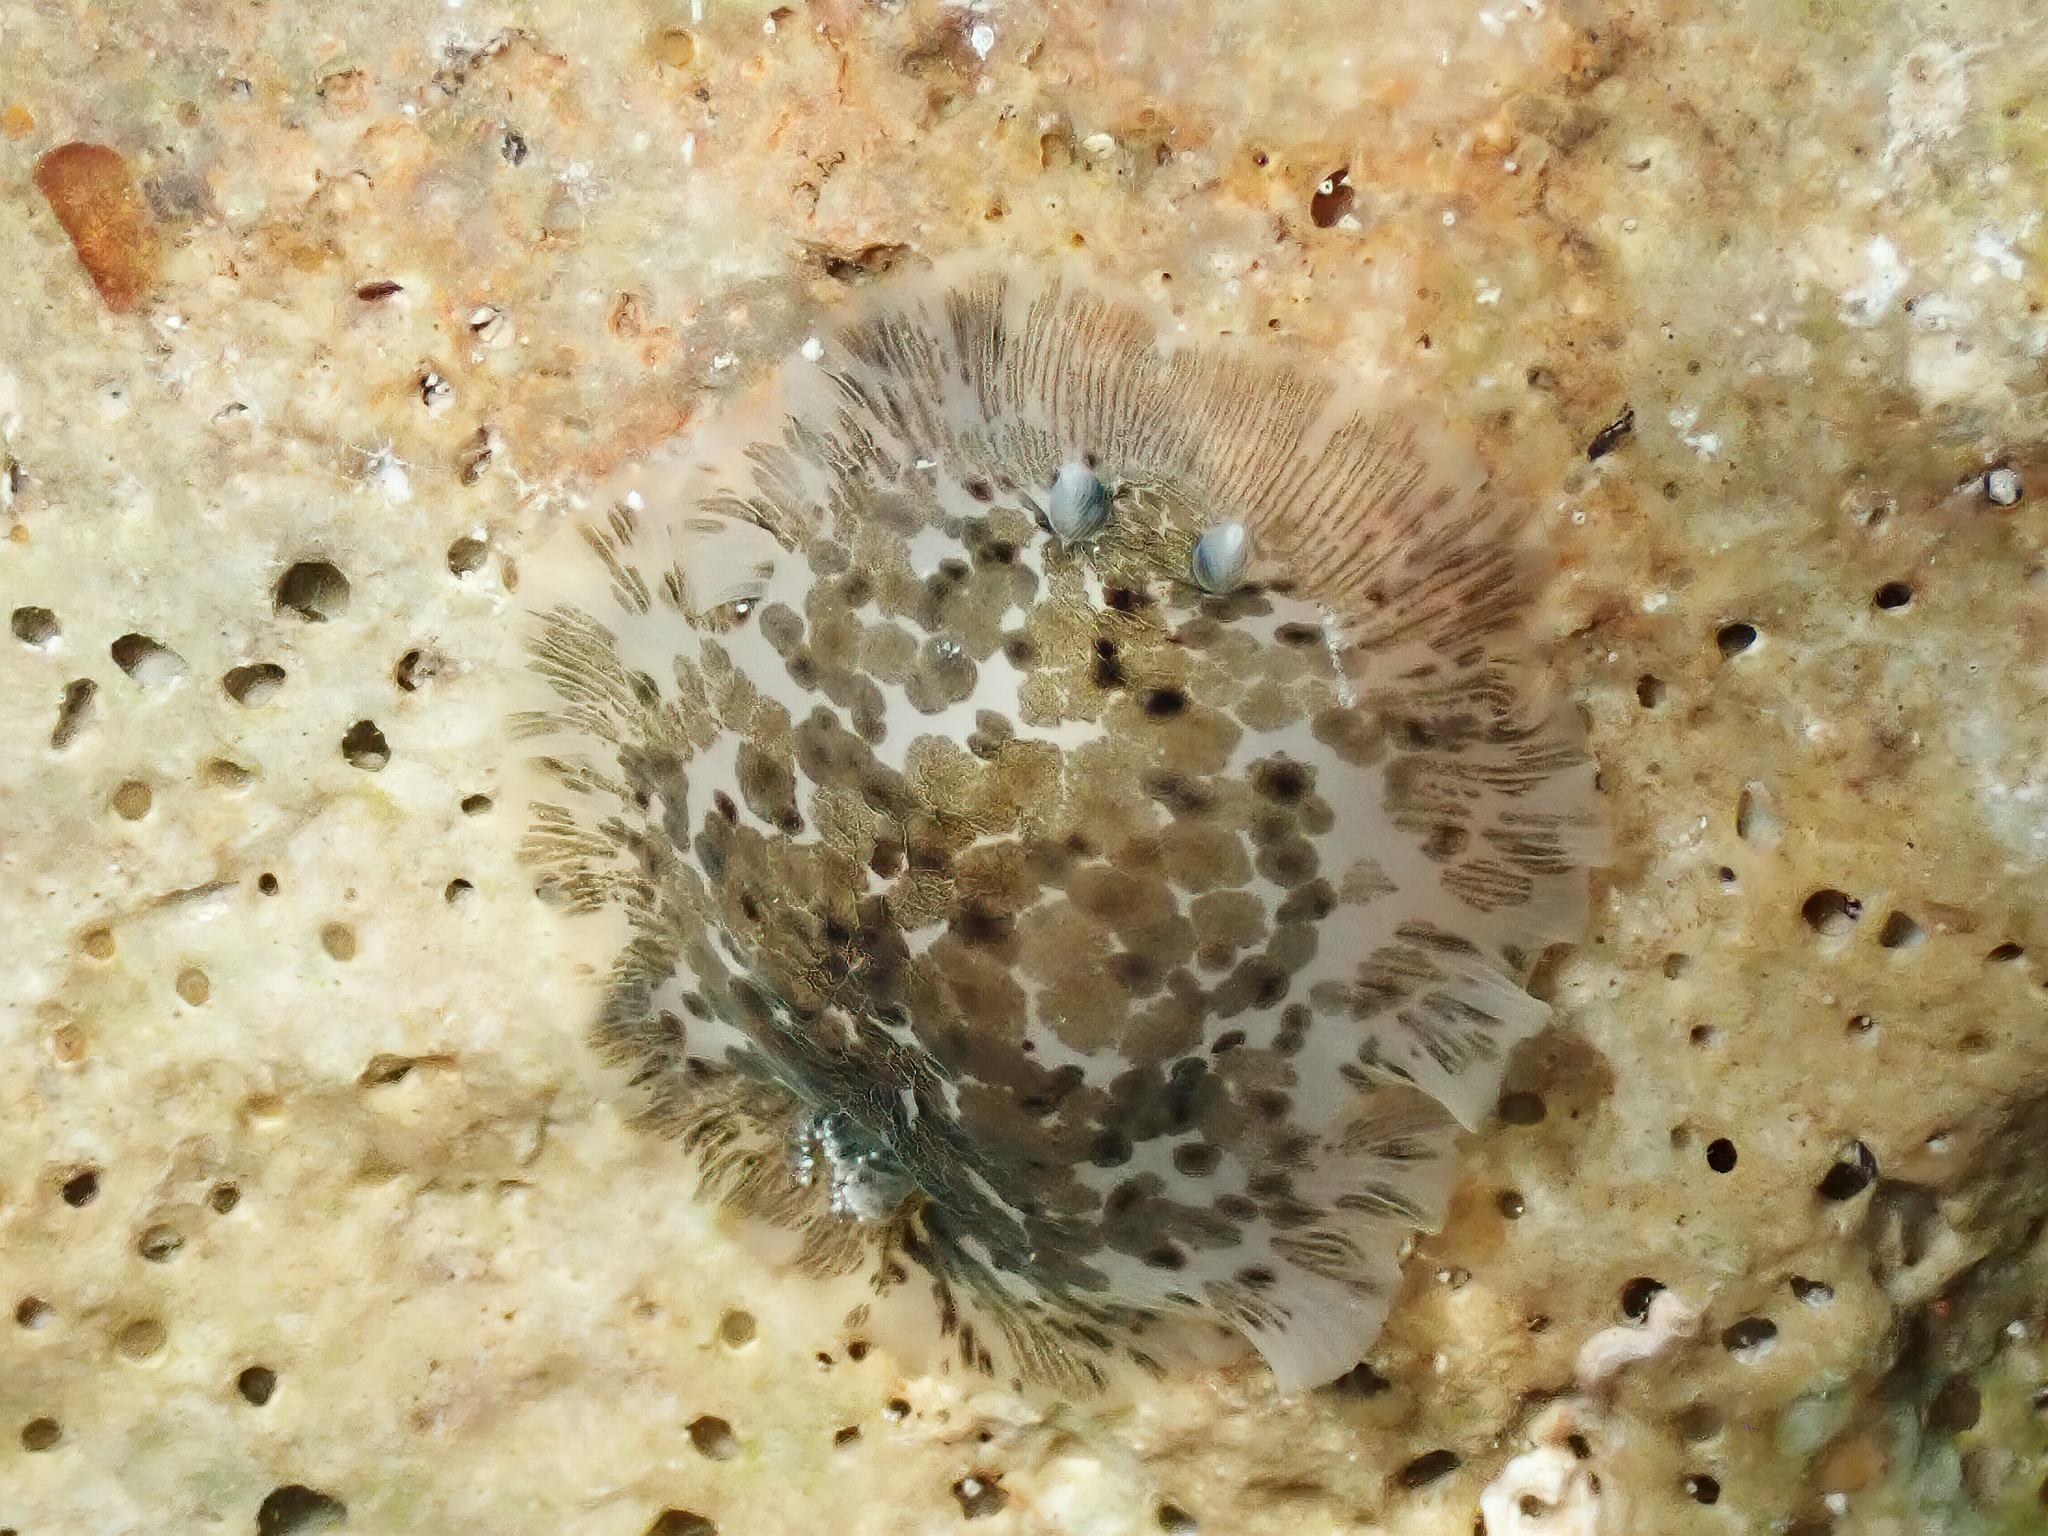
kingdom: Animalia
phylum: Mollusca
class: Gastropoda
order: Nudibranchia
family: Dendrodorididae
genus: Dendrodoris
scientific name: Dendrodoris grandiflora
